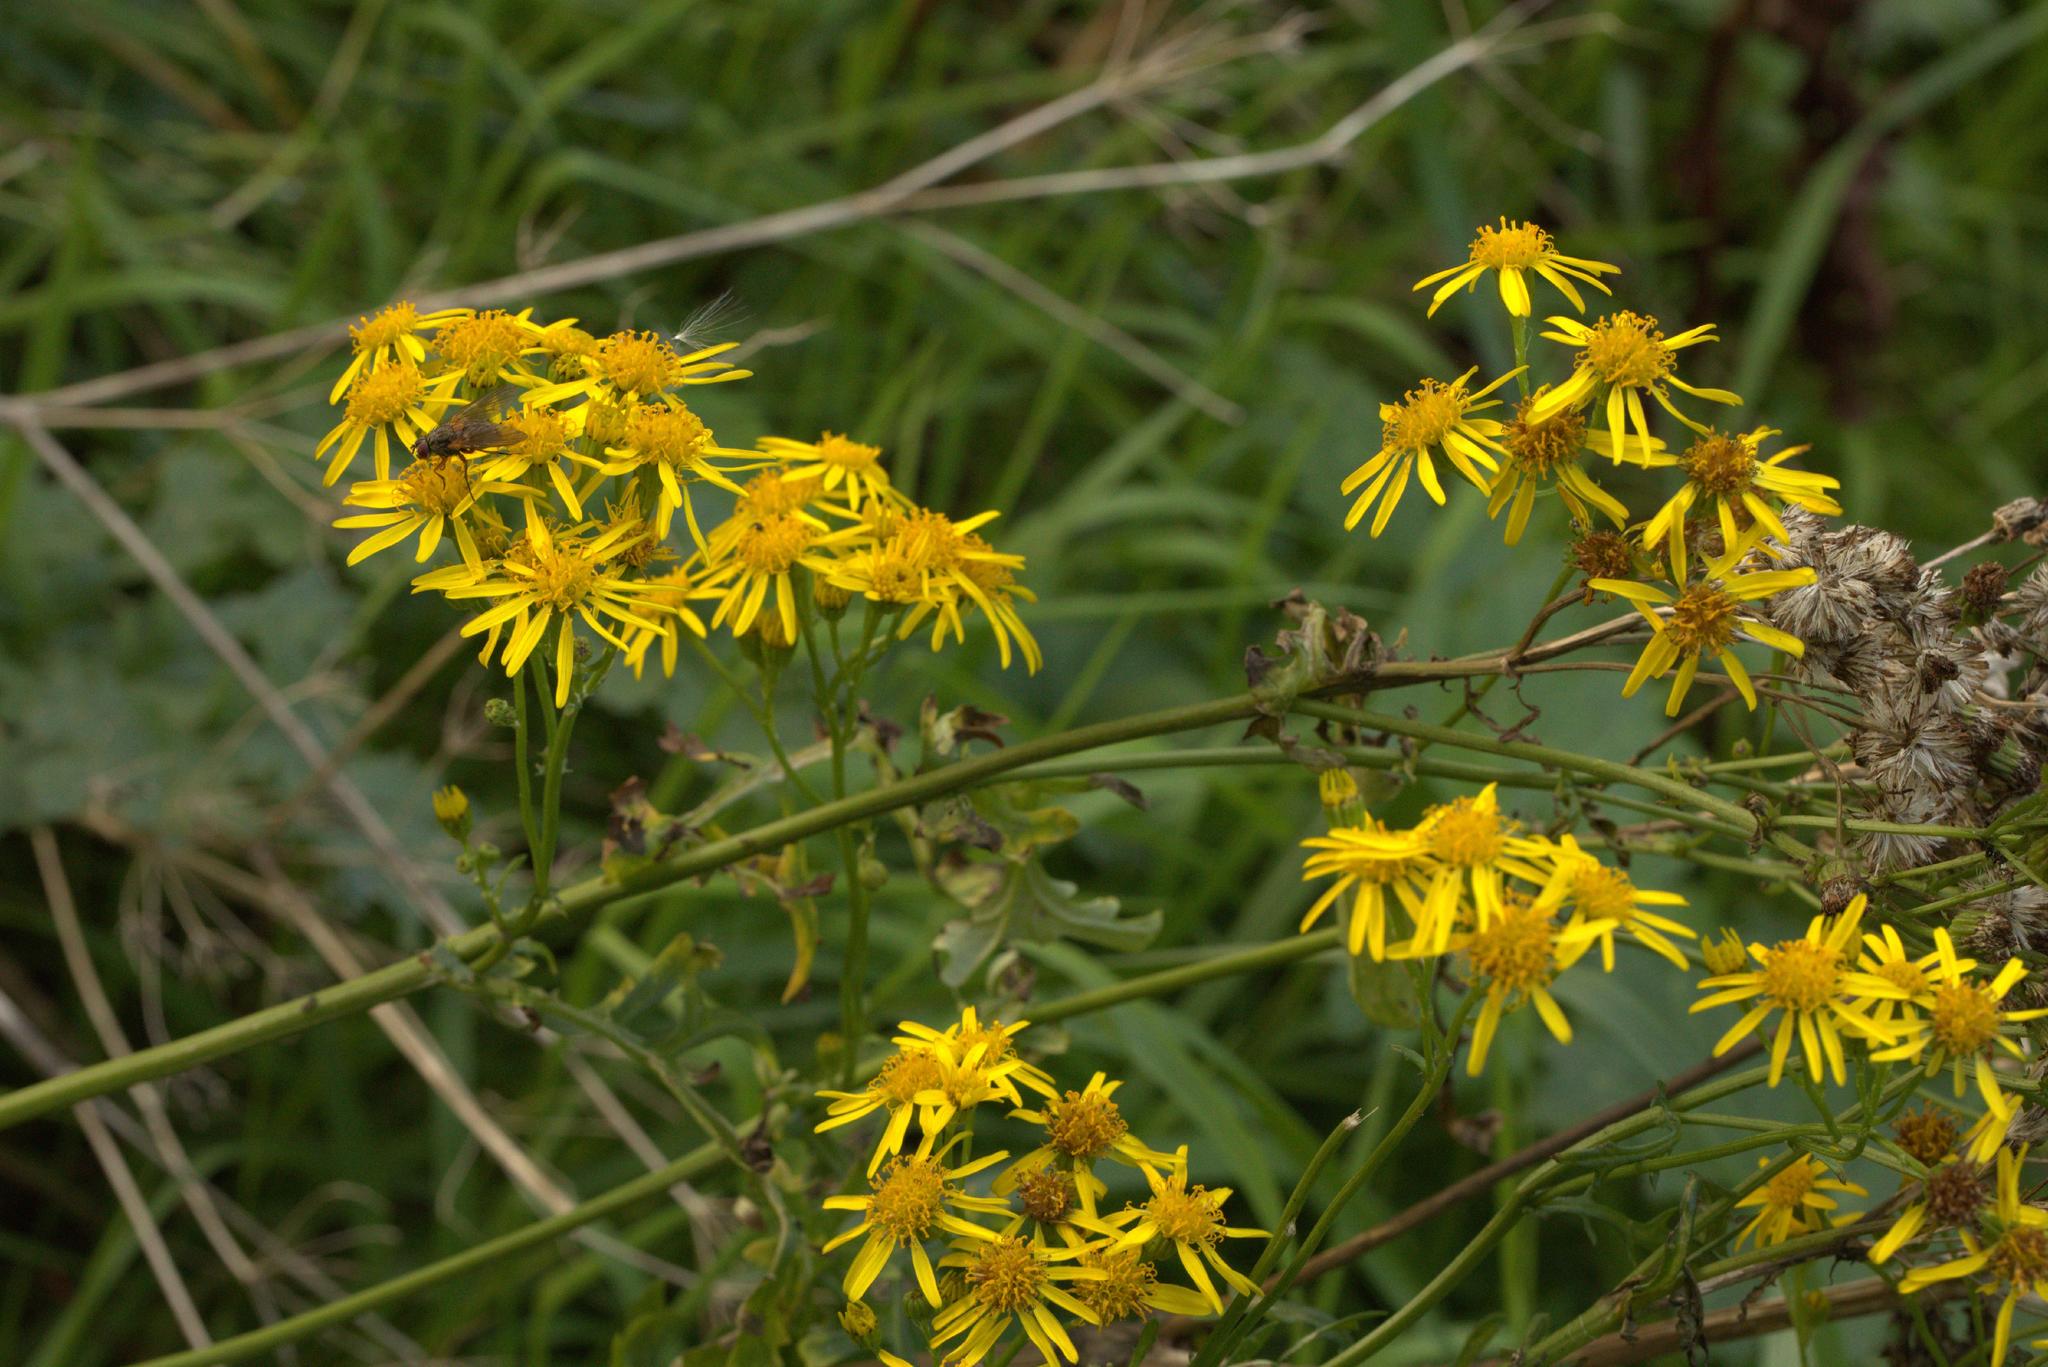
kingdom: Plantae
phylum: Tracheophyta
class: Magnoliopsida
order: Asterales
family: Asteraceae
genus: Jacobaea
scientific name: Jacobaea vulgaris
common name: Stinking willie
